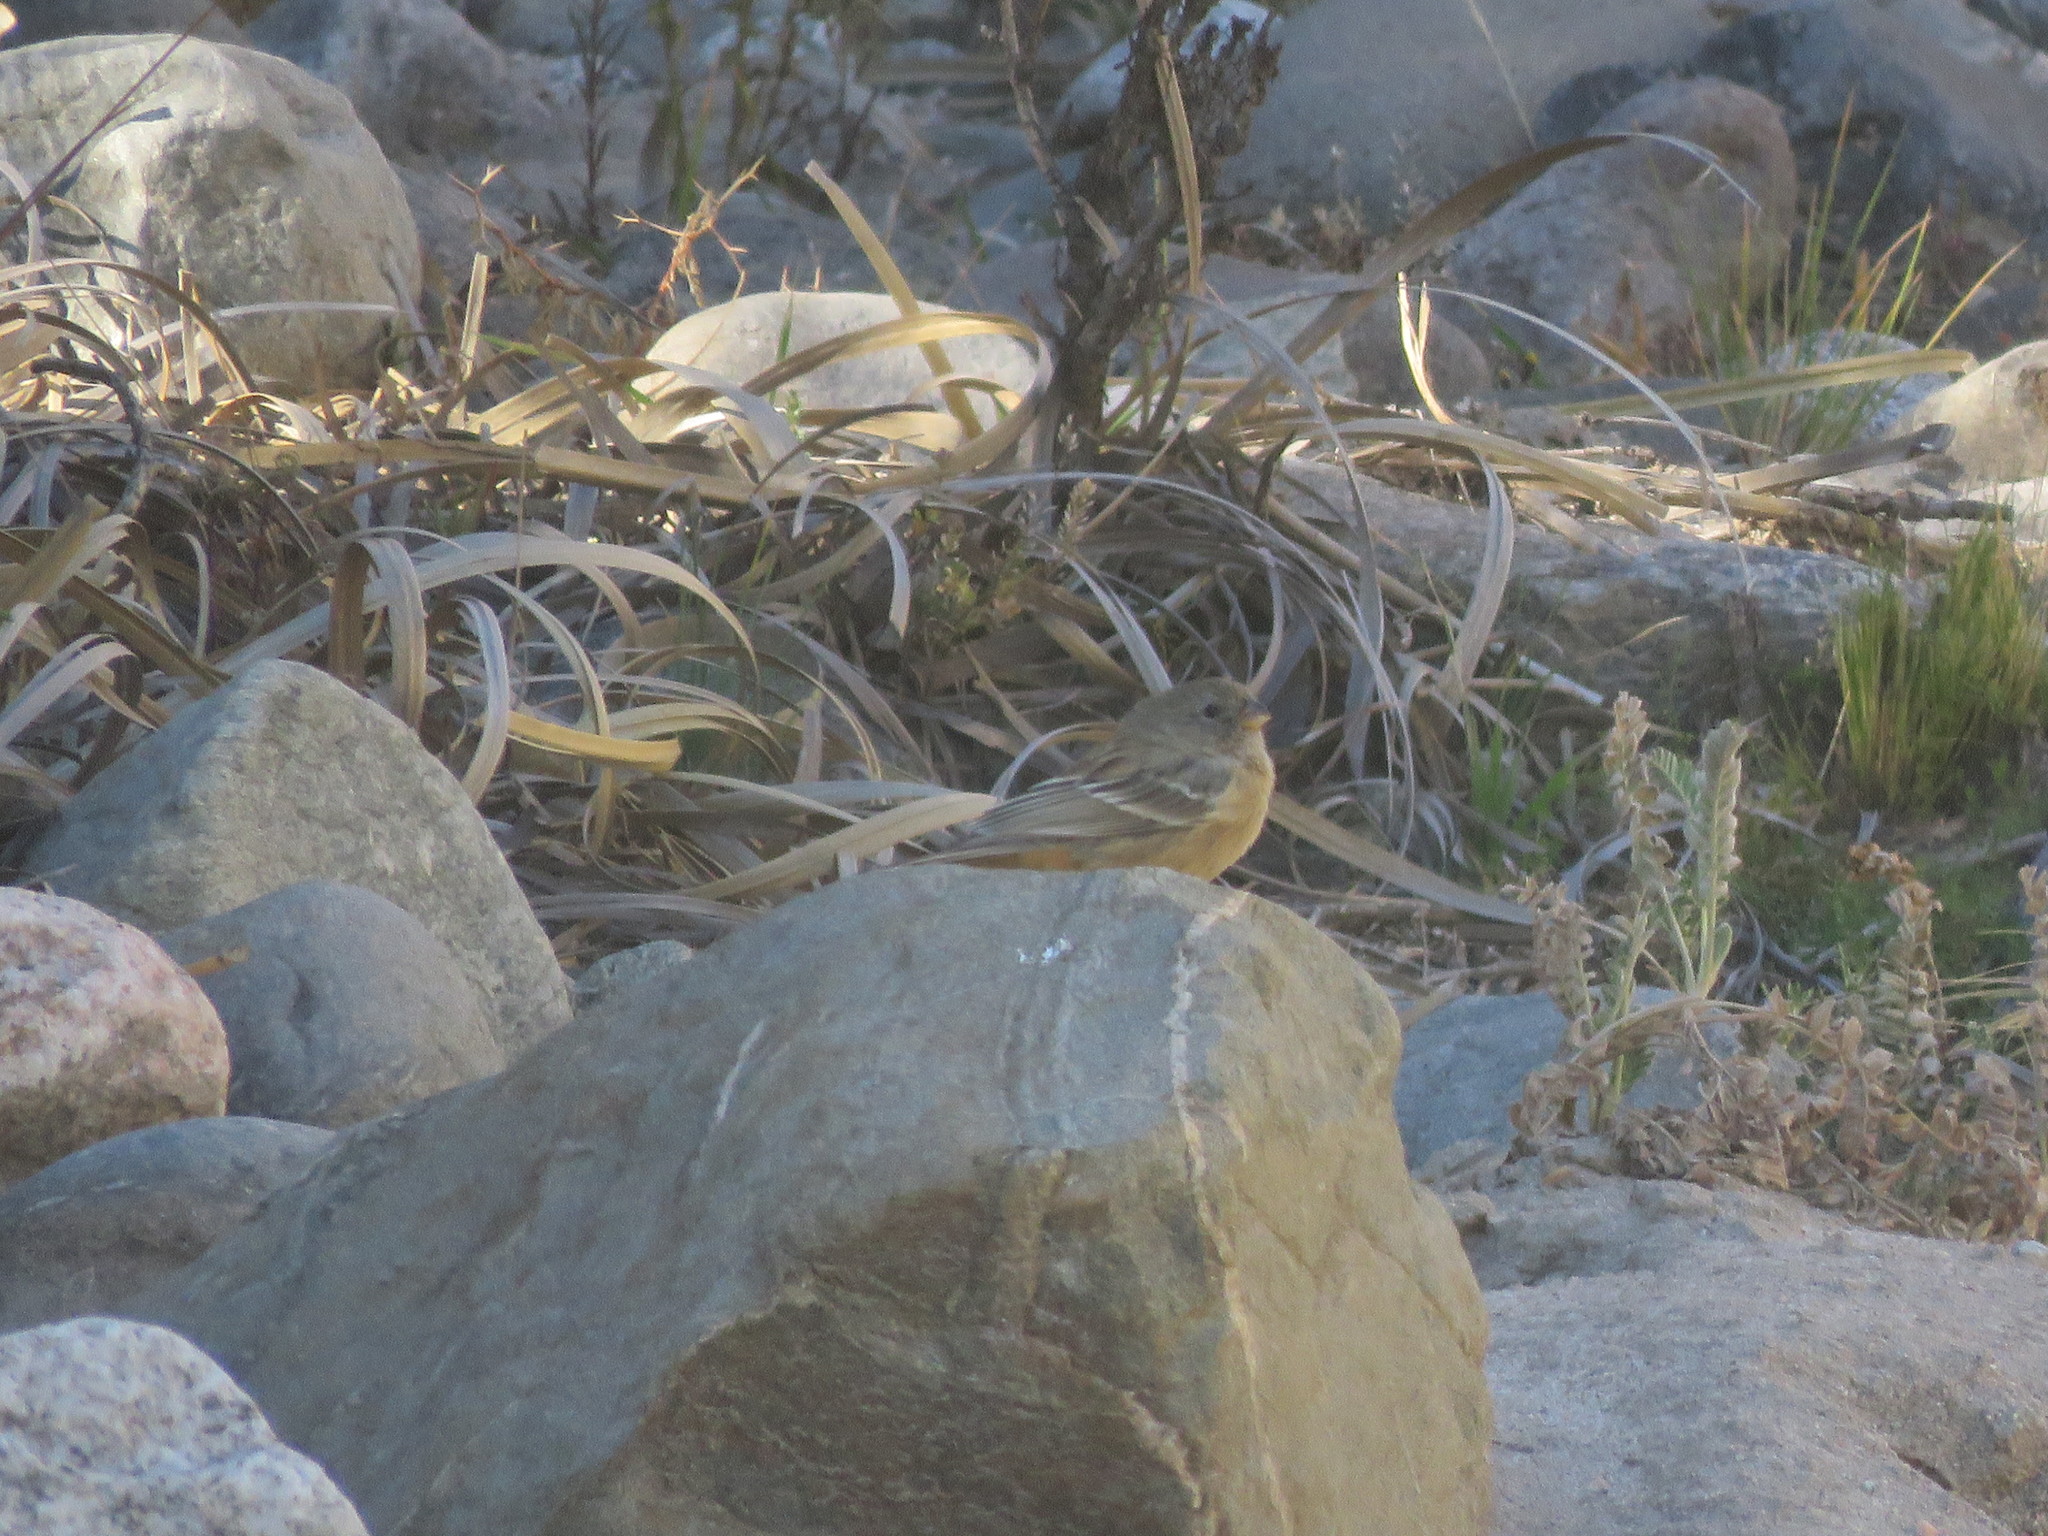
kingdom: Animalia
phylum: Chordata
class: Aves
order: Passeriformes
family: Thraupidae
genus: Catamenia
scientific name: Catamenia inornata
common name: Plain-colored seedeater
